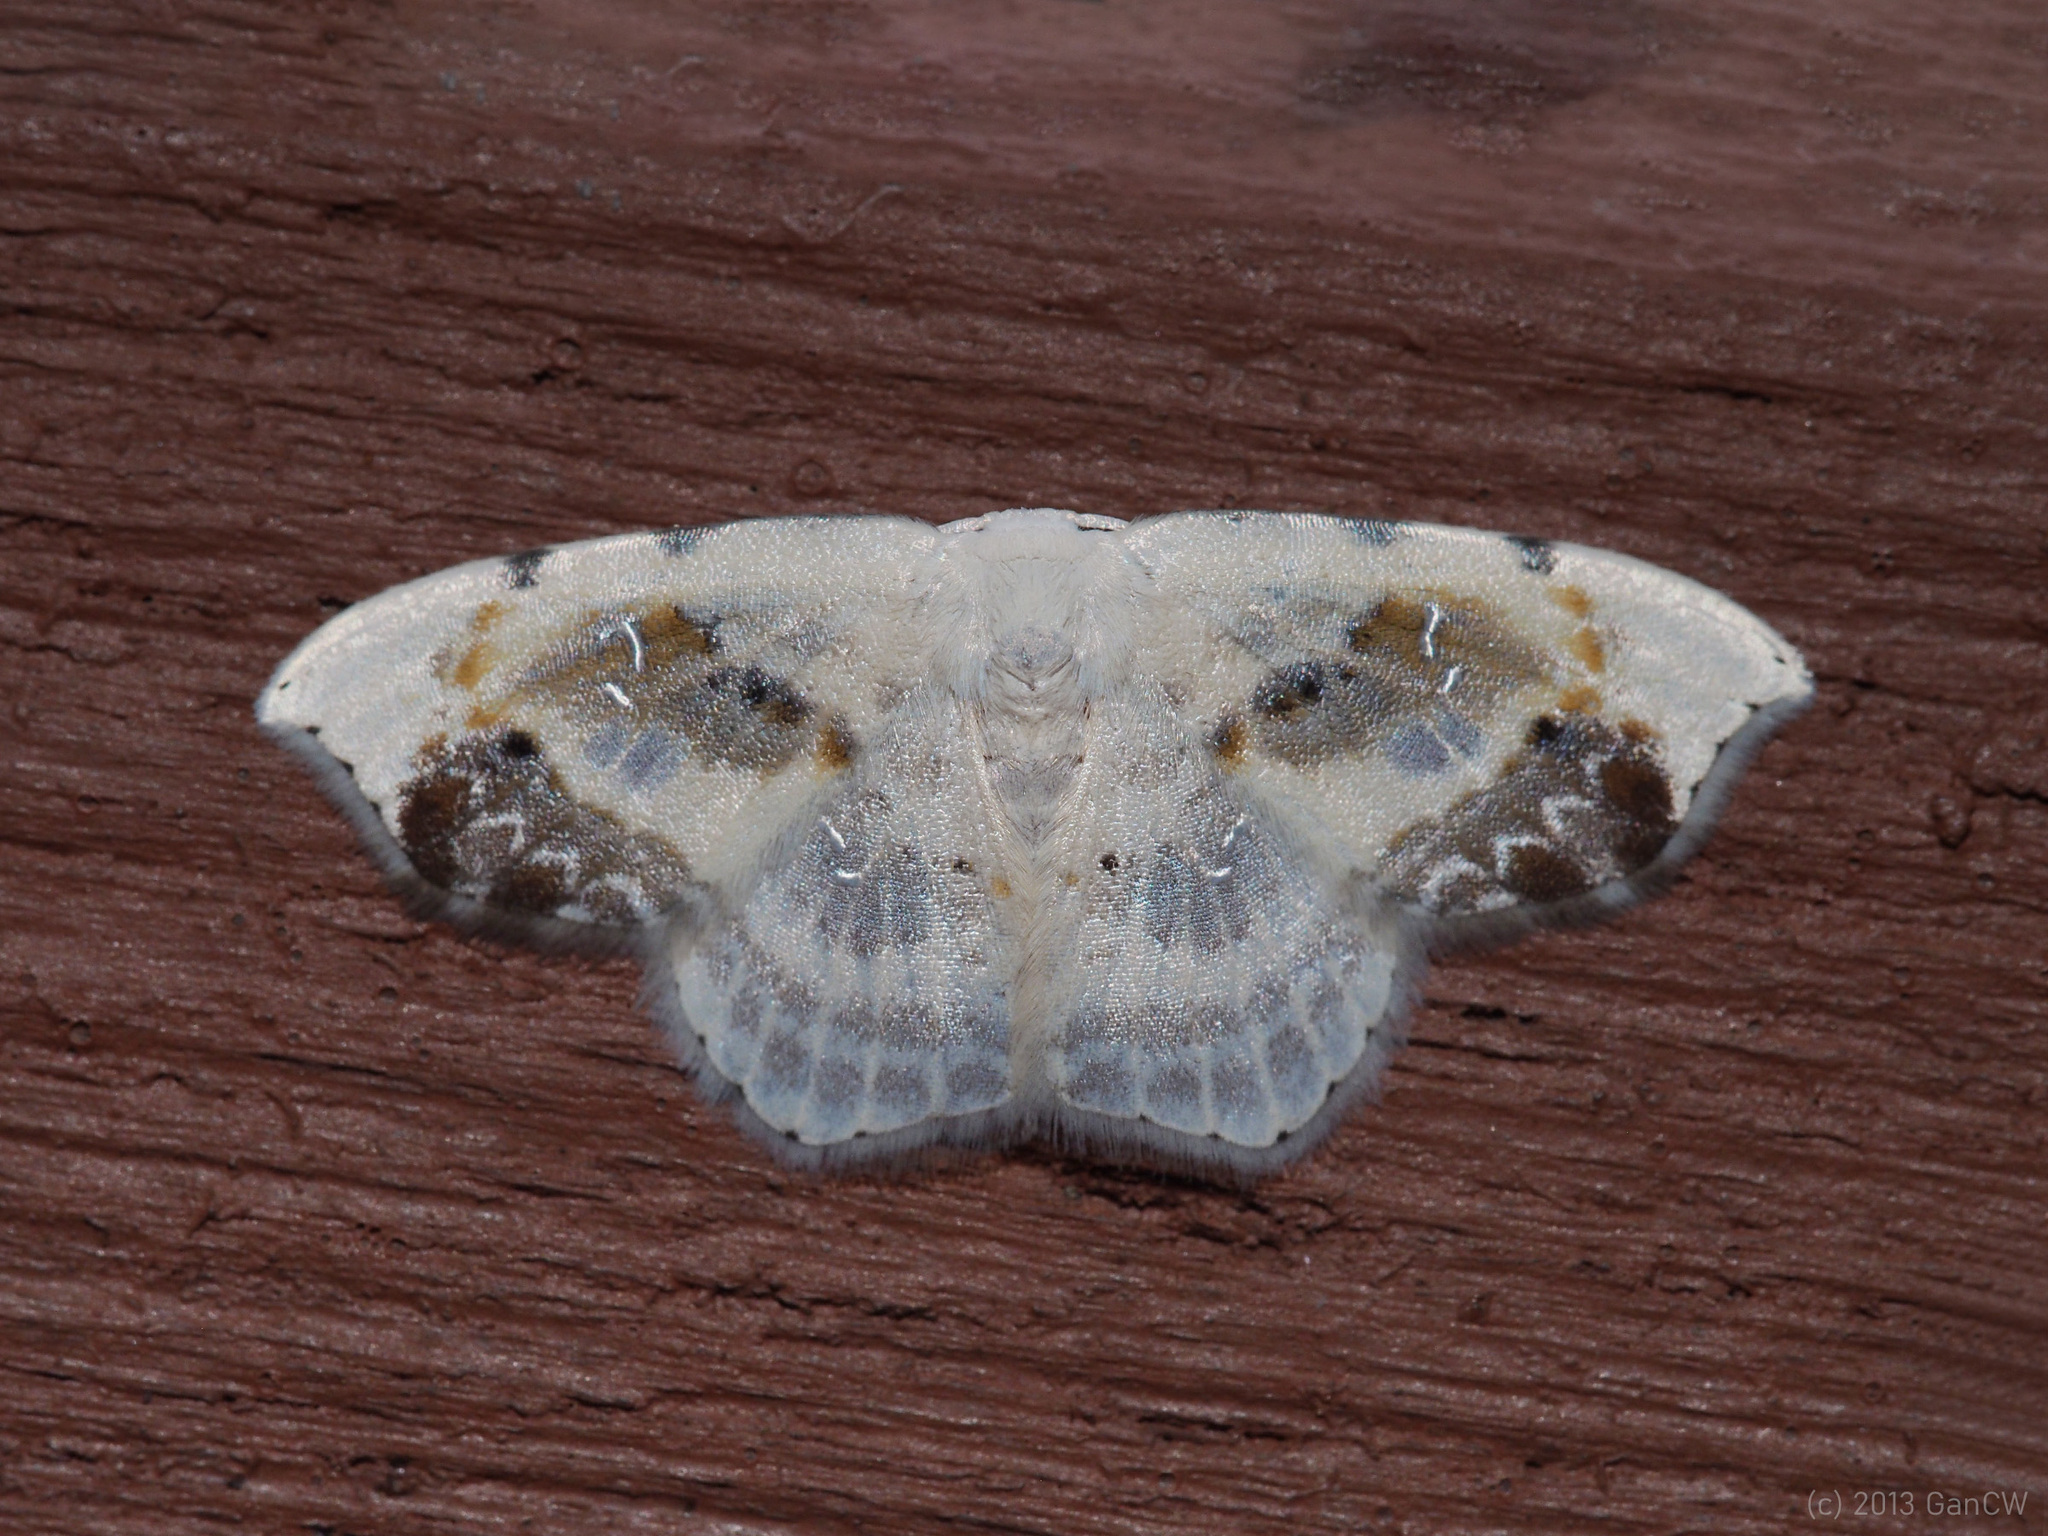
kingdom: Animalia
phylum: Arthropoda
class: Insecta
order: Lepidoptera
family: Drepanidae
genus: Leucoblepsis
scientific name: Leucoblepsis renifera
